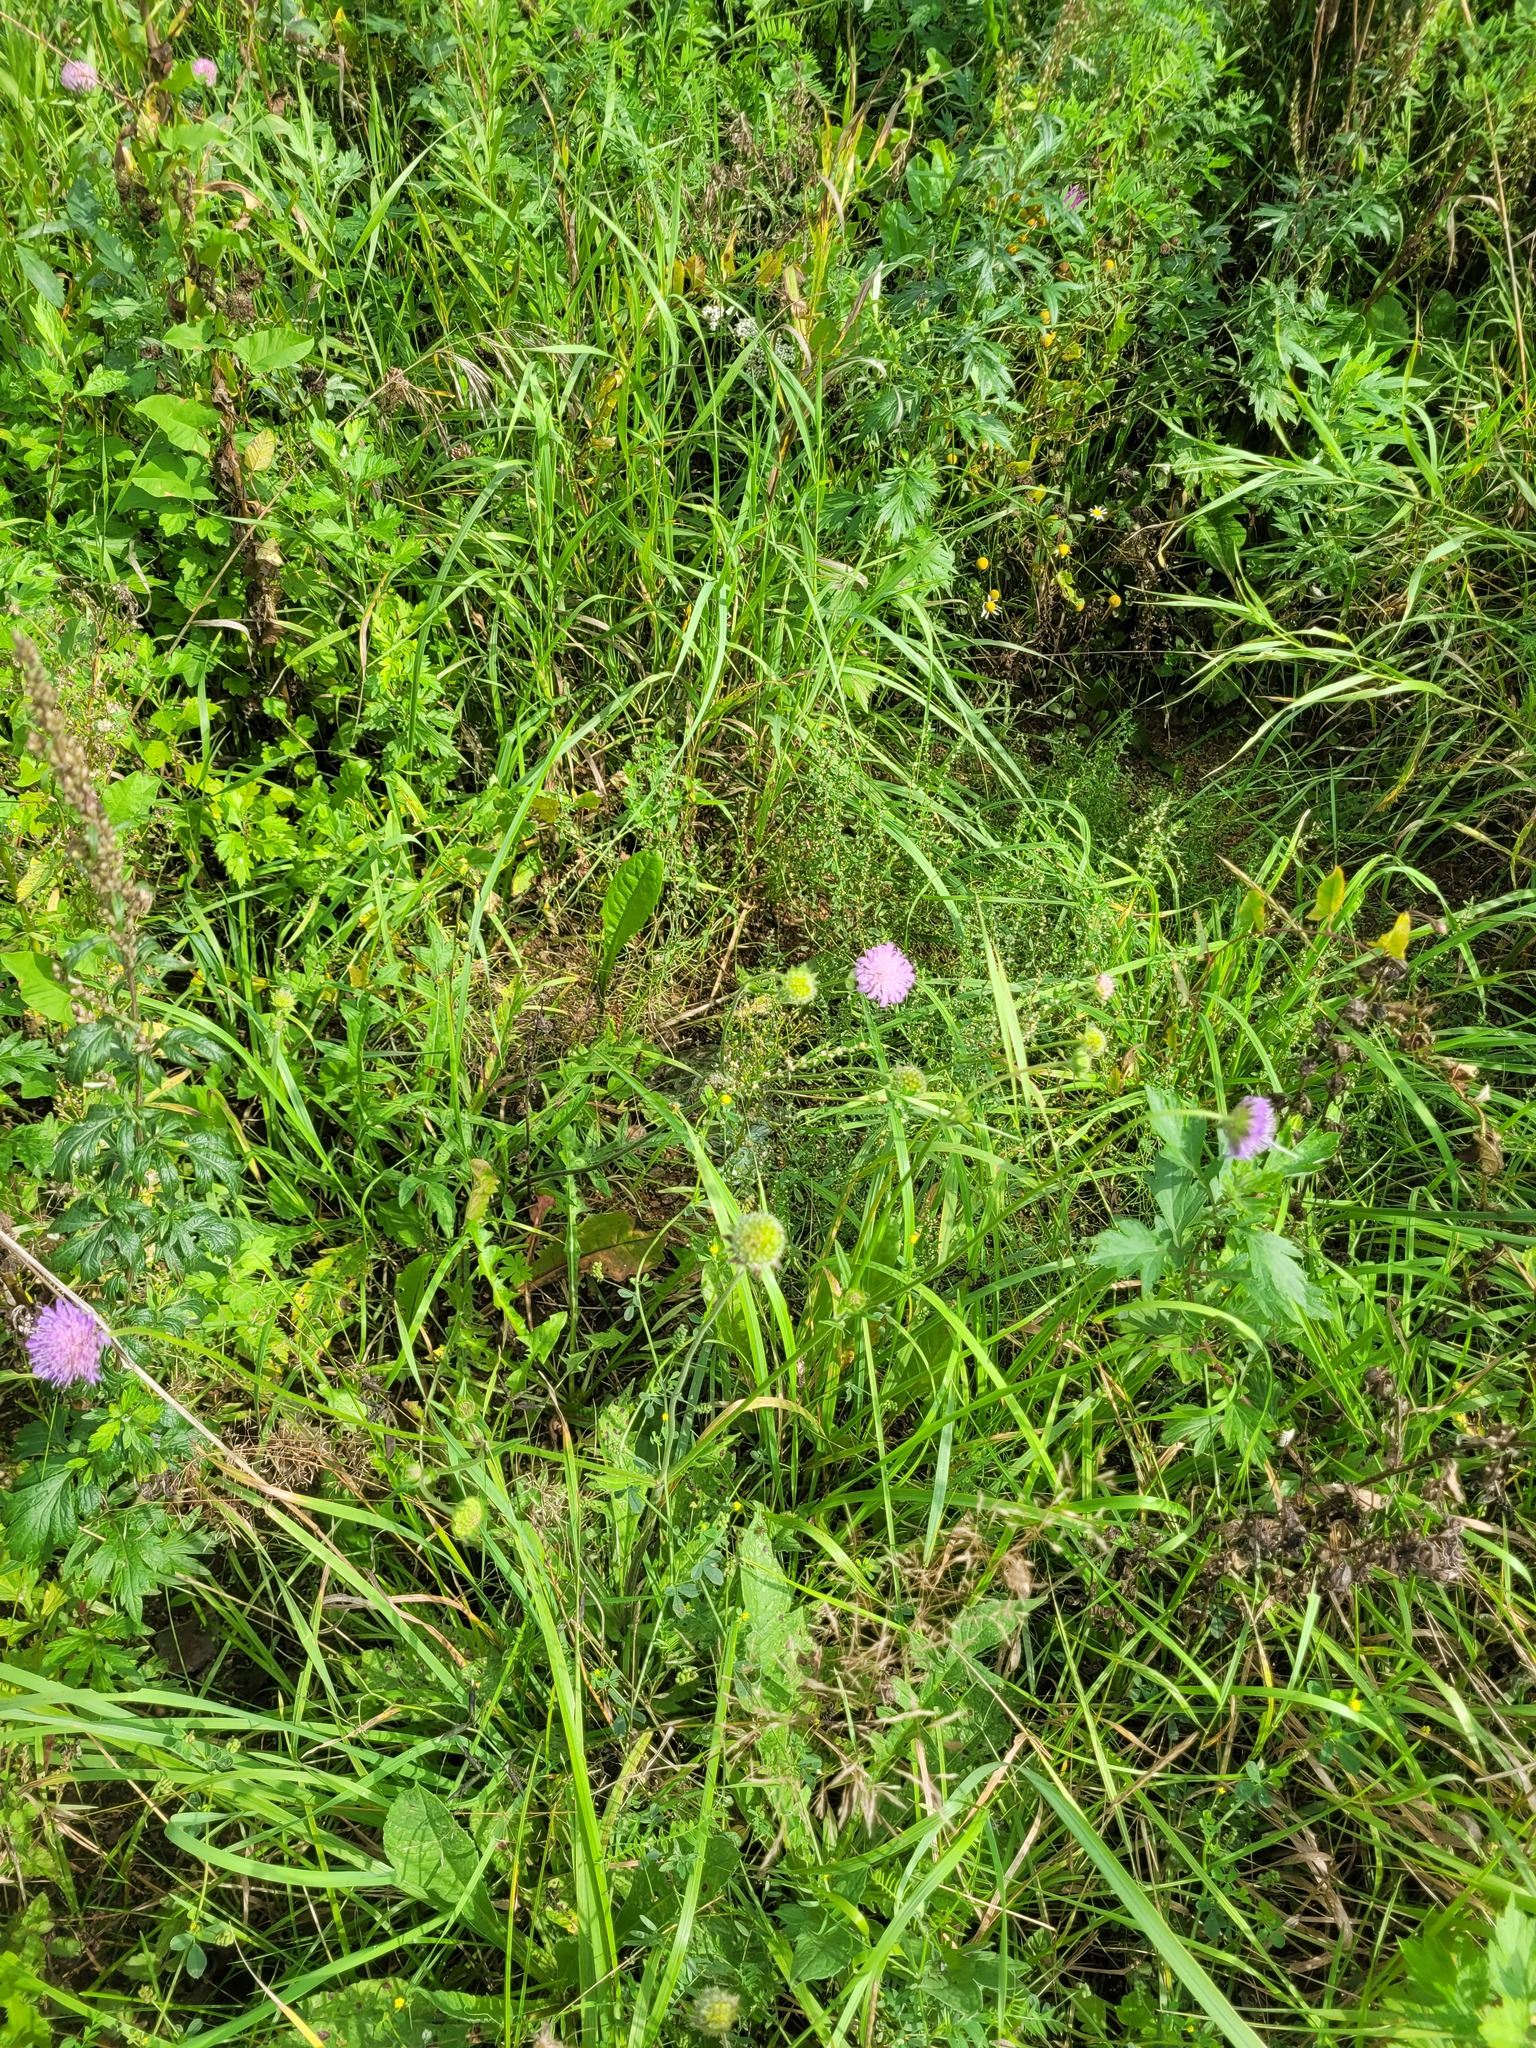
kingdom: Plantae
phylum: Tracheophyta
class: Magnoliopsida
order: Dipsacales
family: Caprifoliaceae
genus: Knautia
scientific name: Knautia arvensis
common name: Field scabiosa
